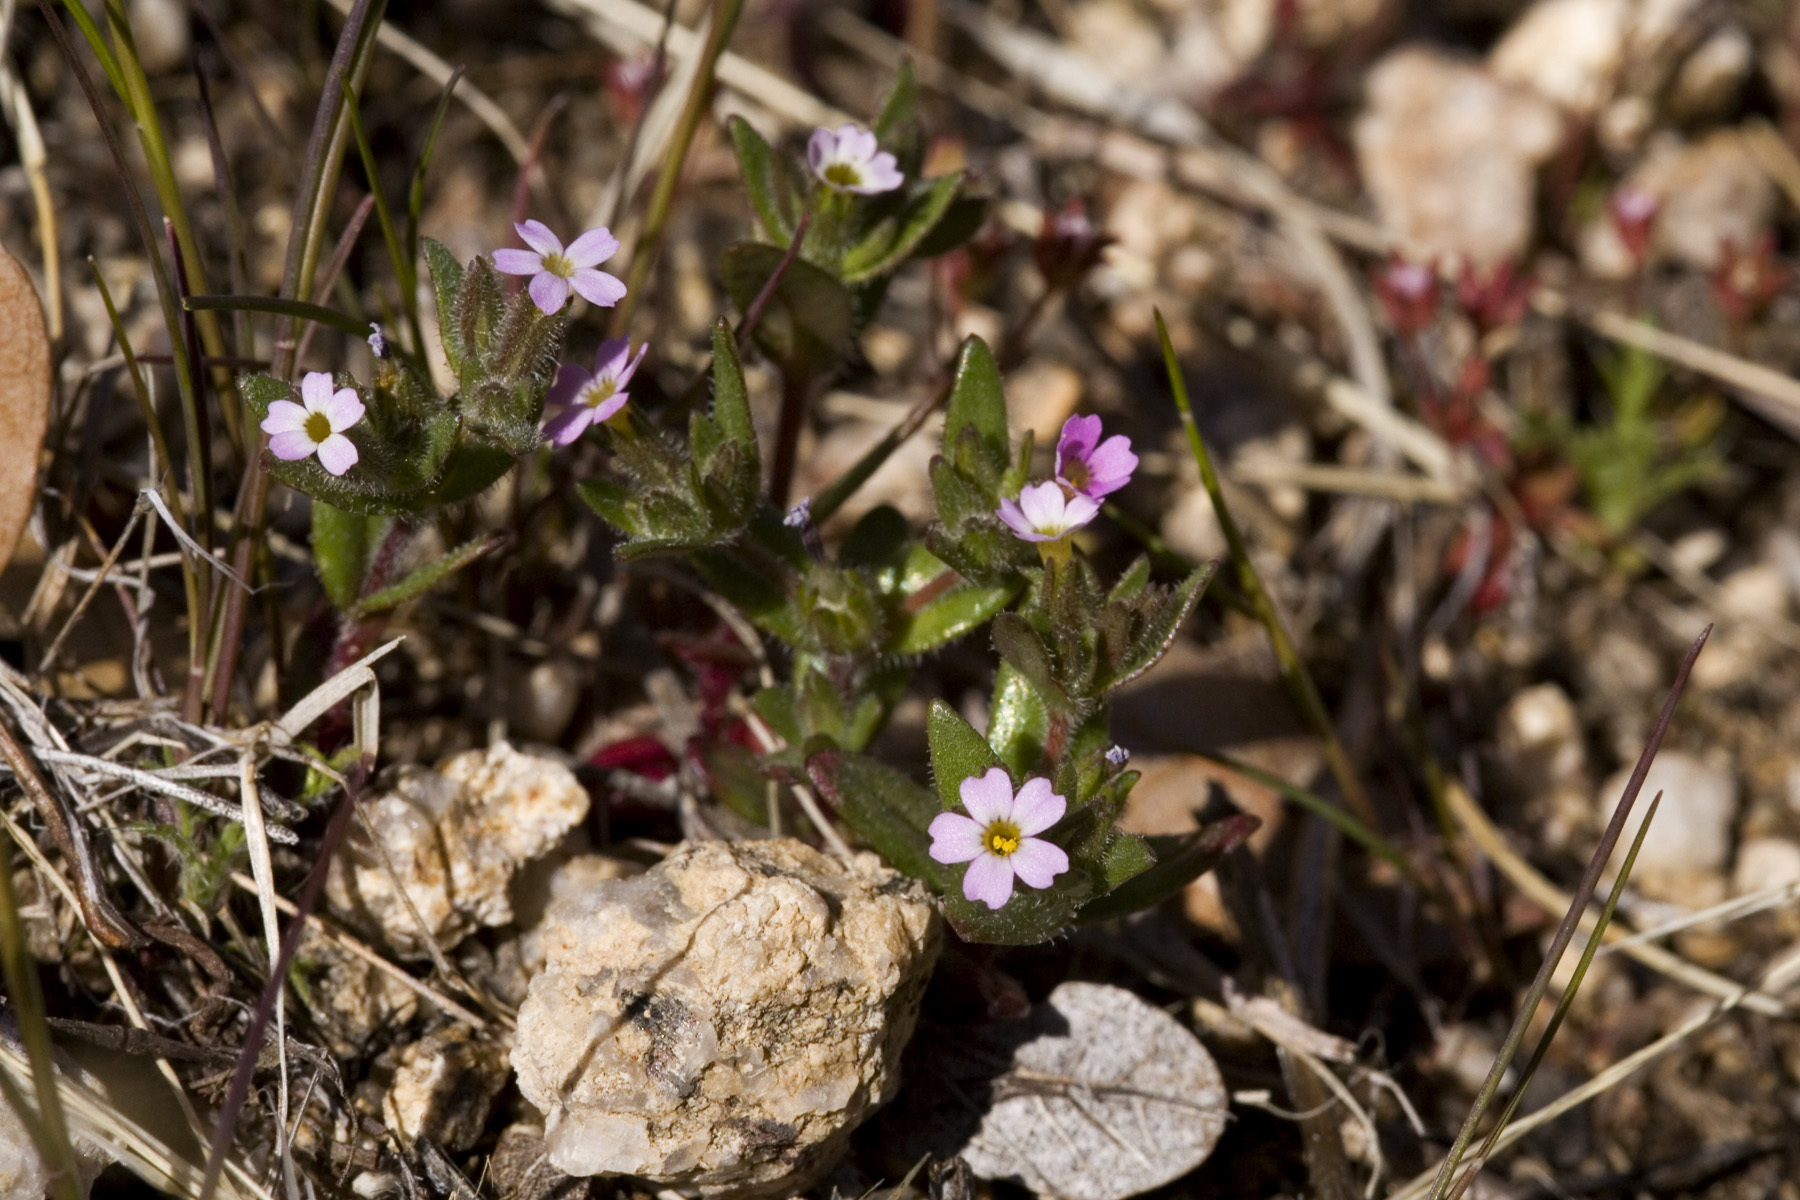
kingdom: Plantae
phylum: Tracheophyta
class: Magnoliopsida
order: Ericales
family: Polemoniaceae
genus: Phlox
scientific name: Phlox gracilis
